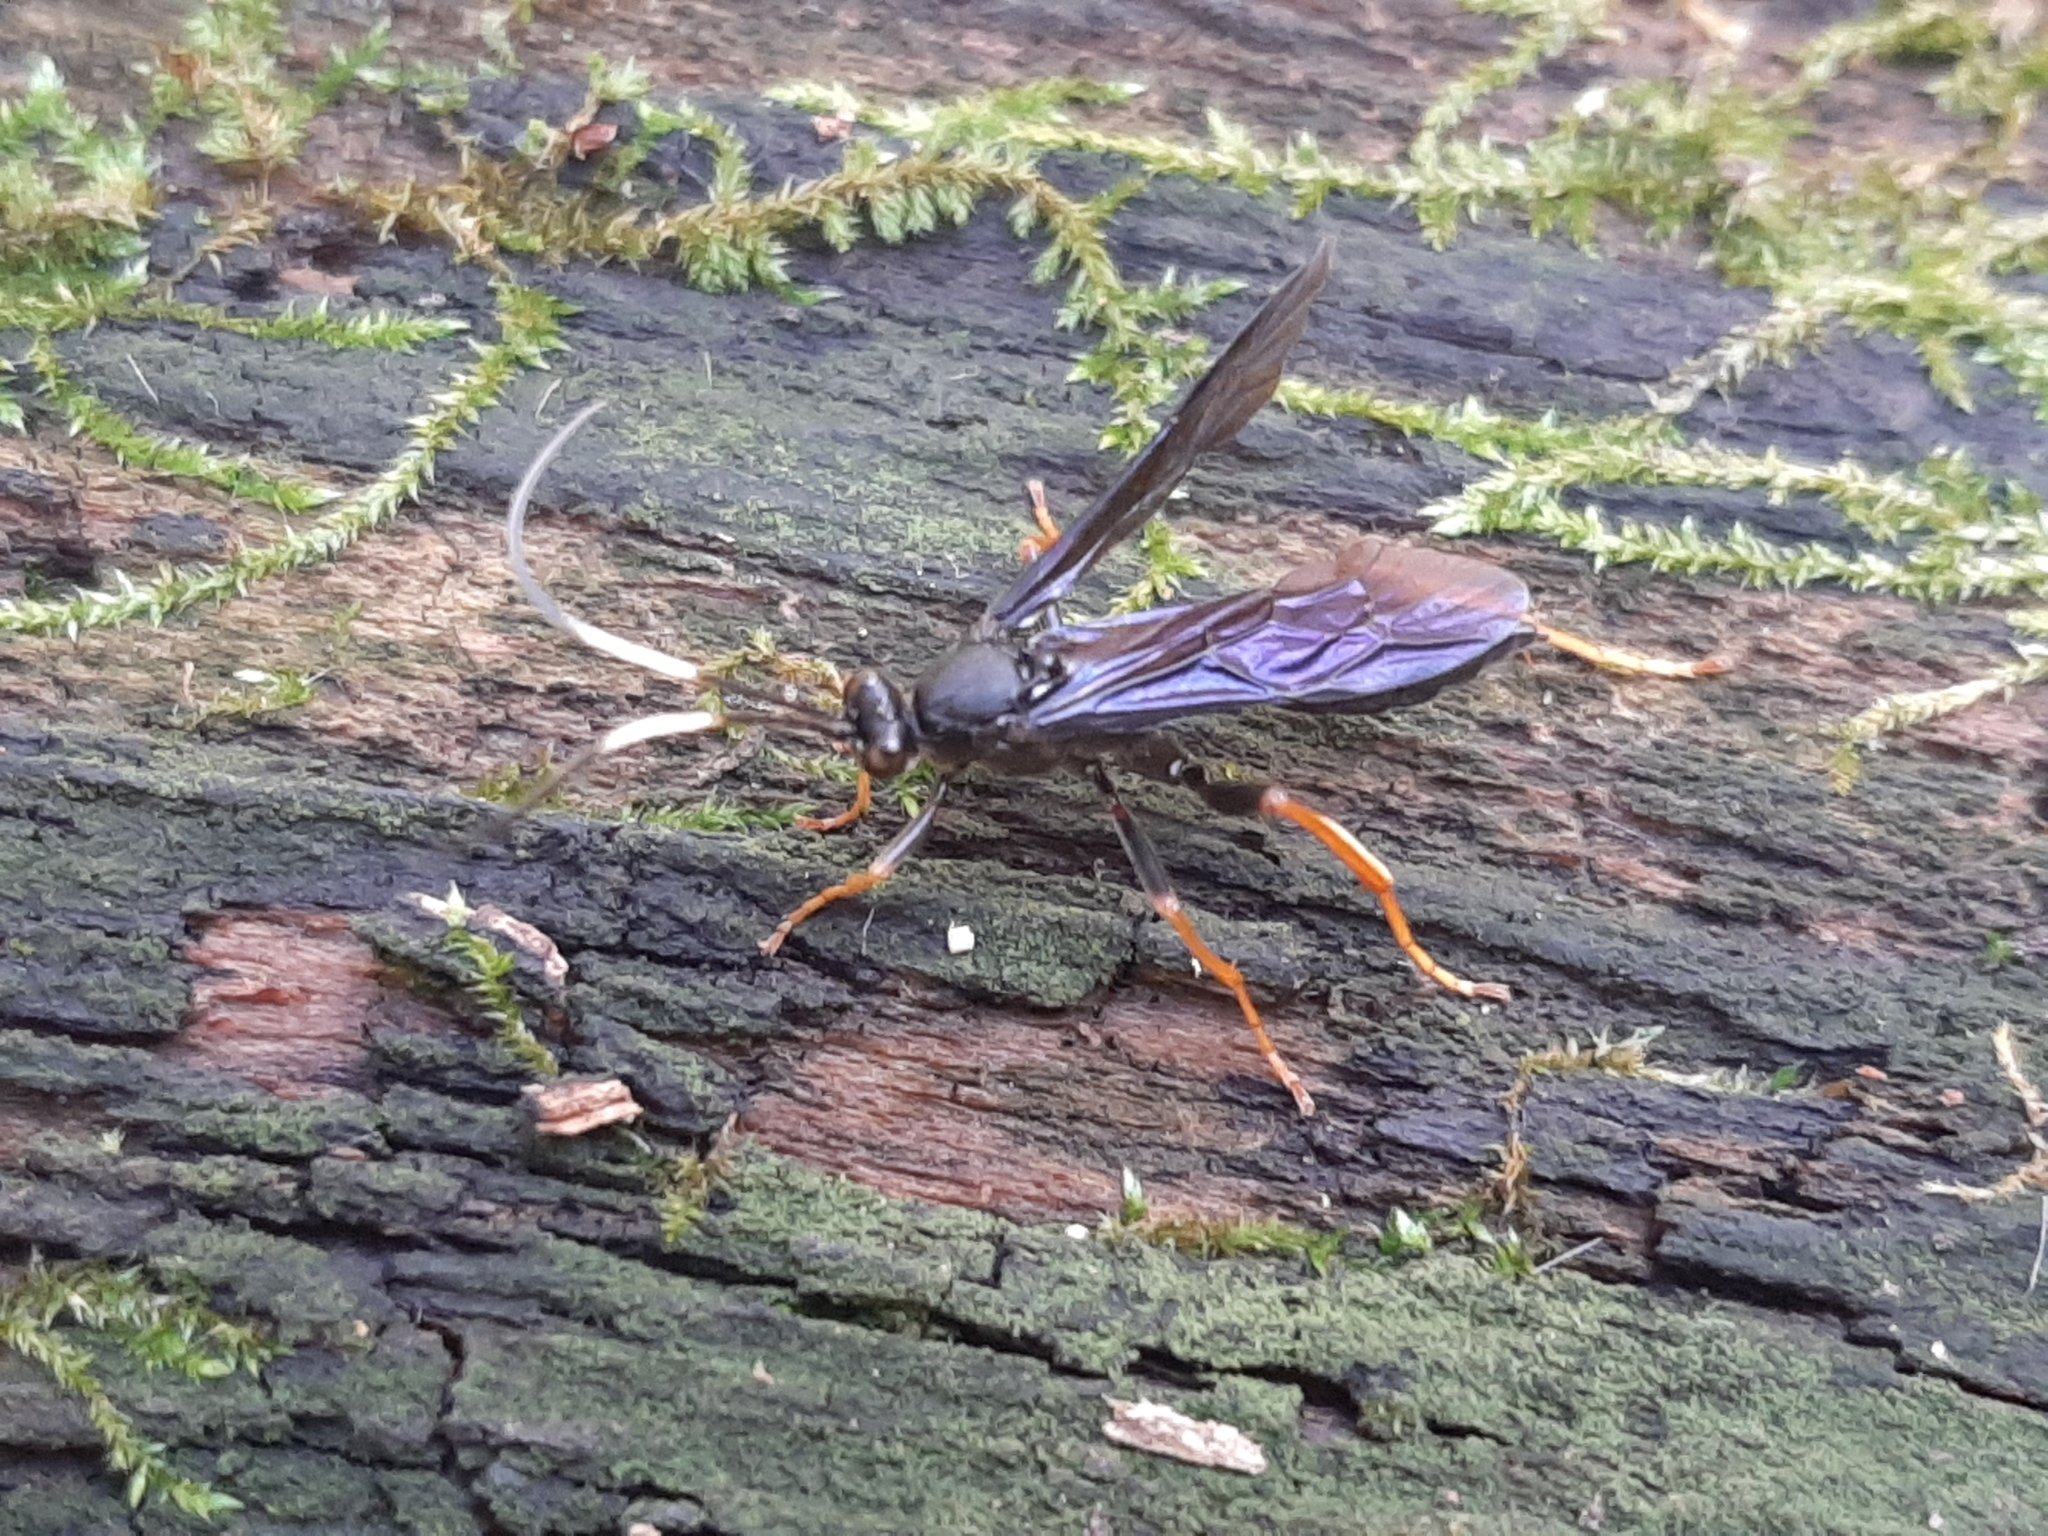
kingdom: Animalia
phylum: Arthropoda
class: Insecta
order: Hymenoptera
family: Ichneumonidae
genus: Hoplismenus
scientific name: Hoplismenus morulus
